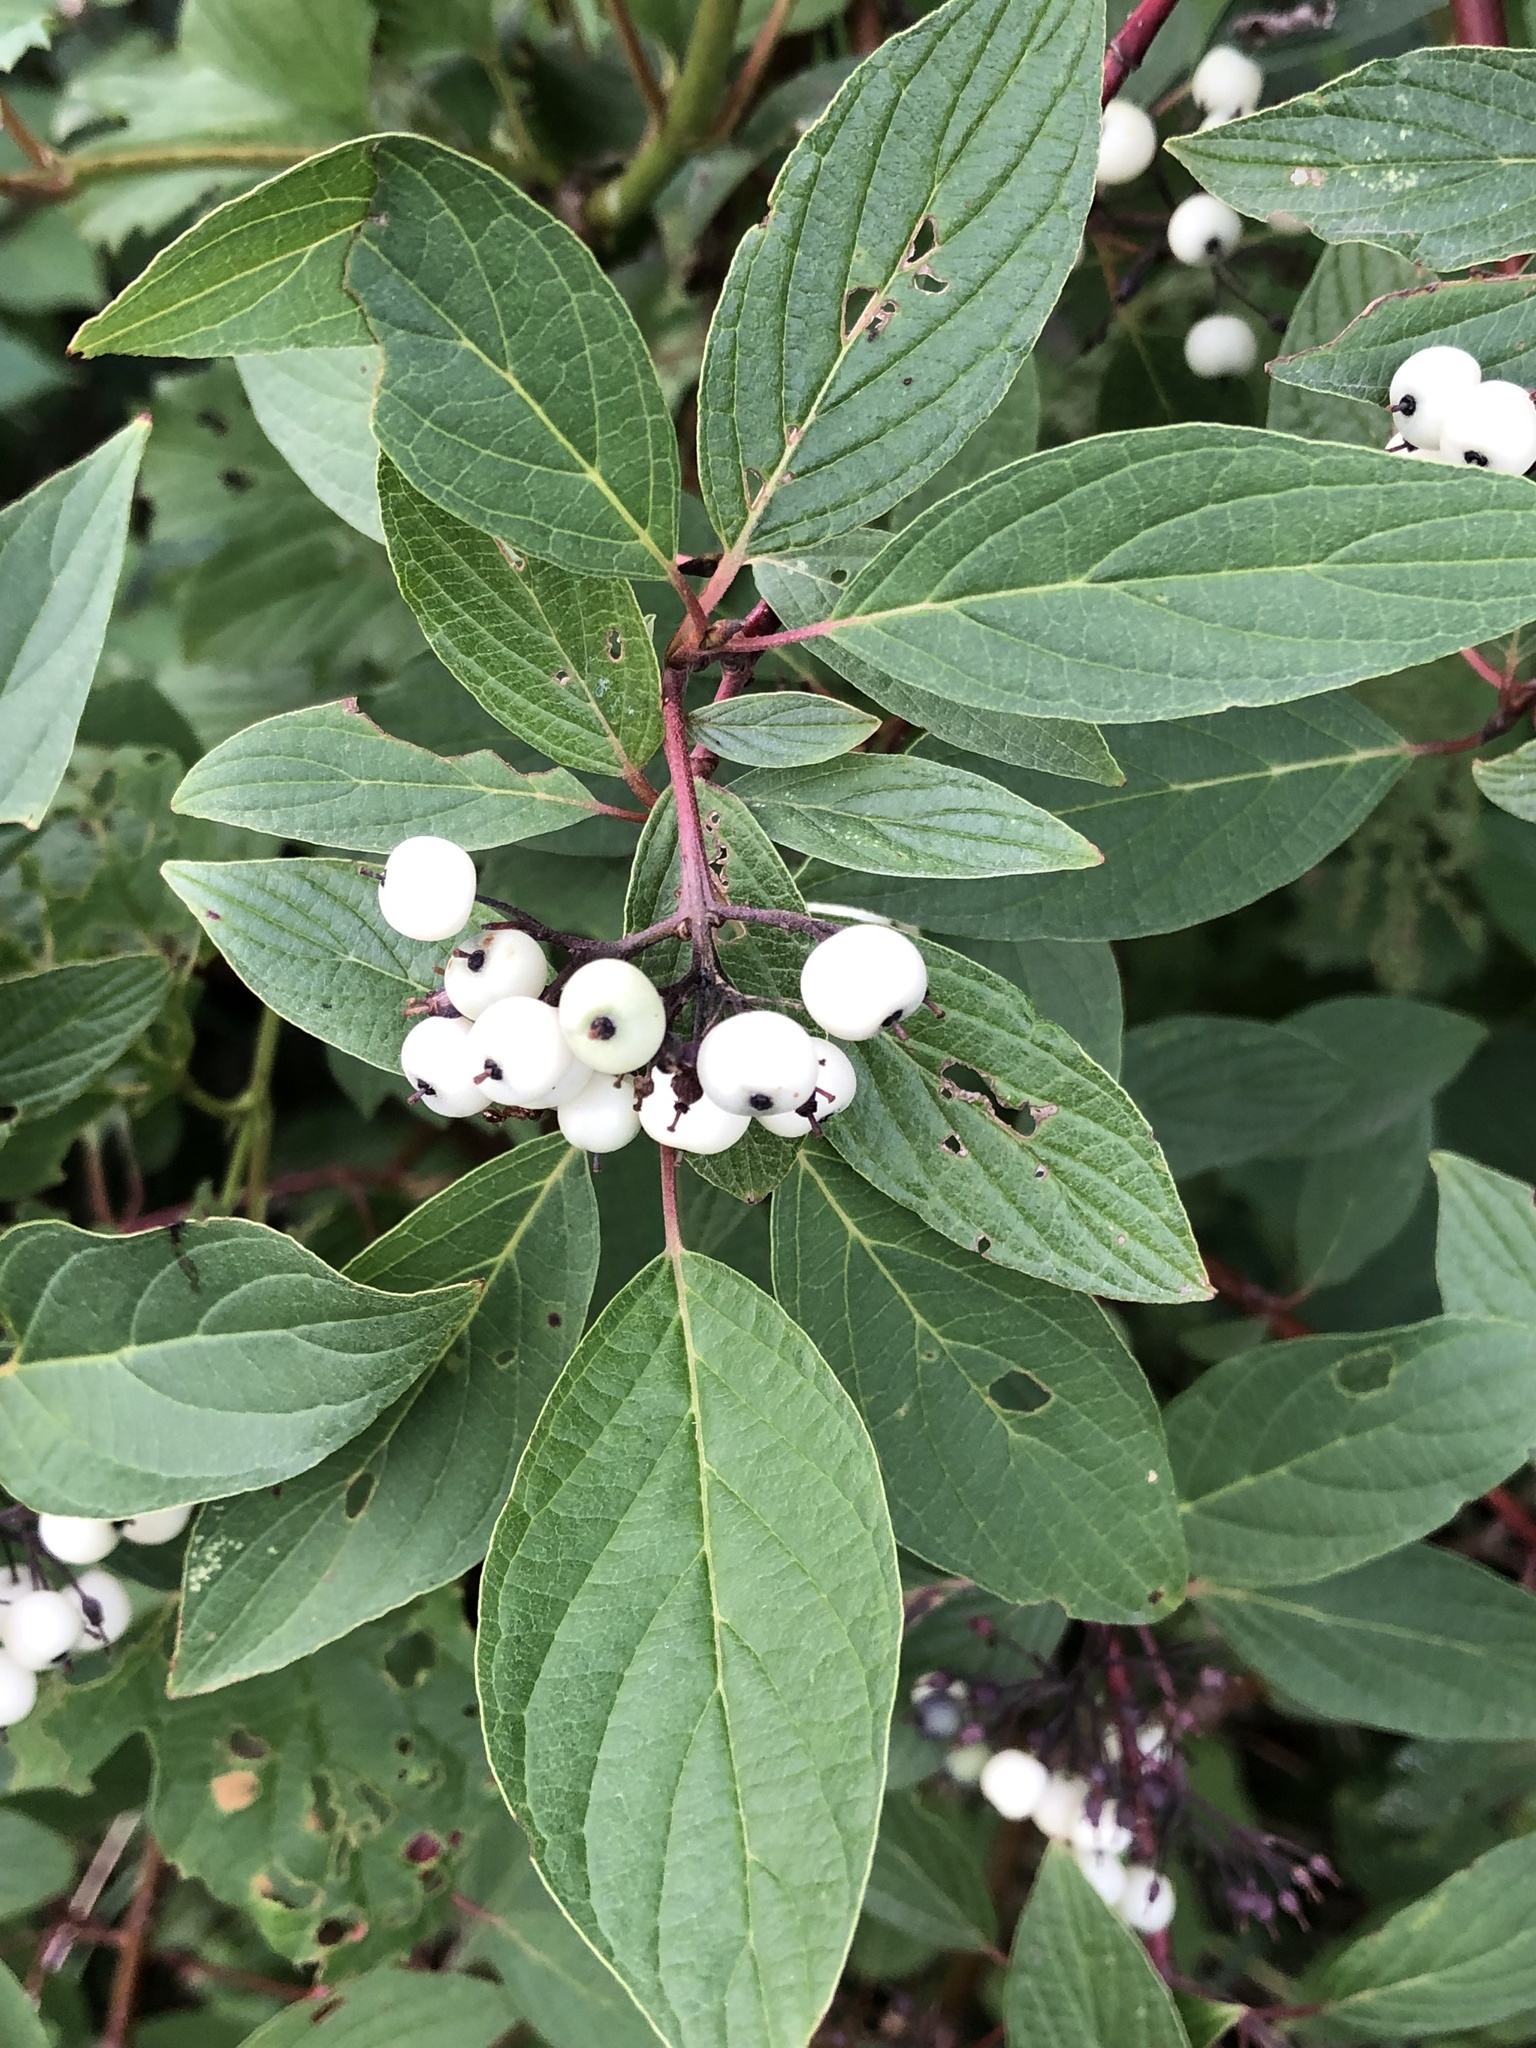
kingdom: Plantae
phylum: Tracheophyta
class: Magnoliopsida
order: Cornales
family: Cornaceae
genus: Cornus
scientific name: Cornus sericea
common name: Red-osier dogwood
